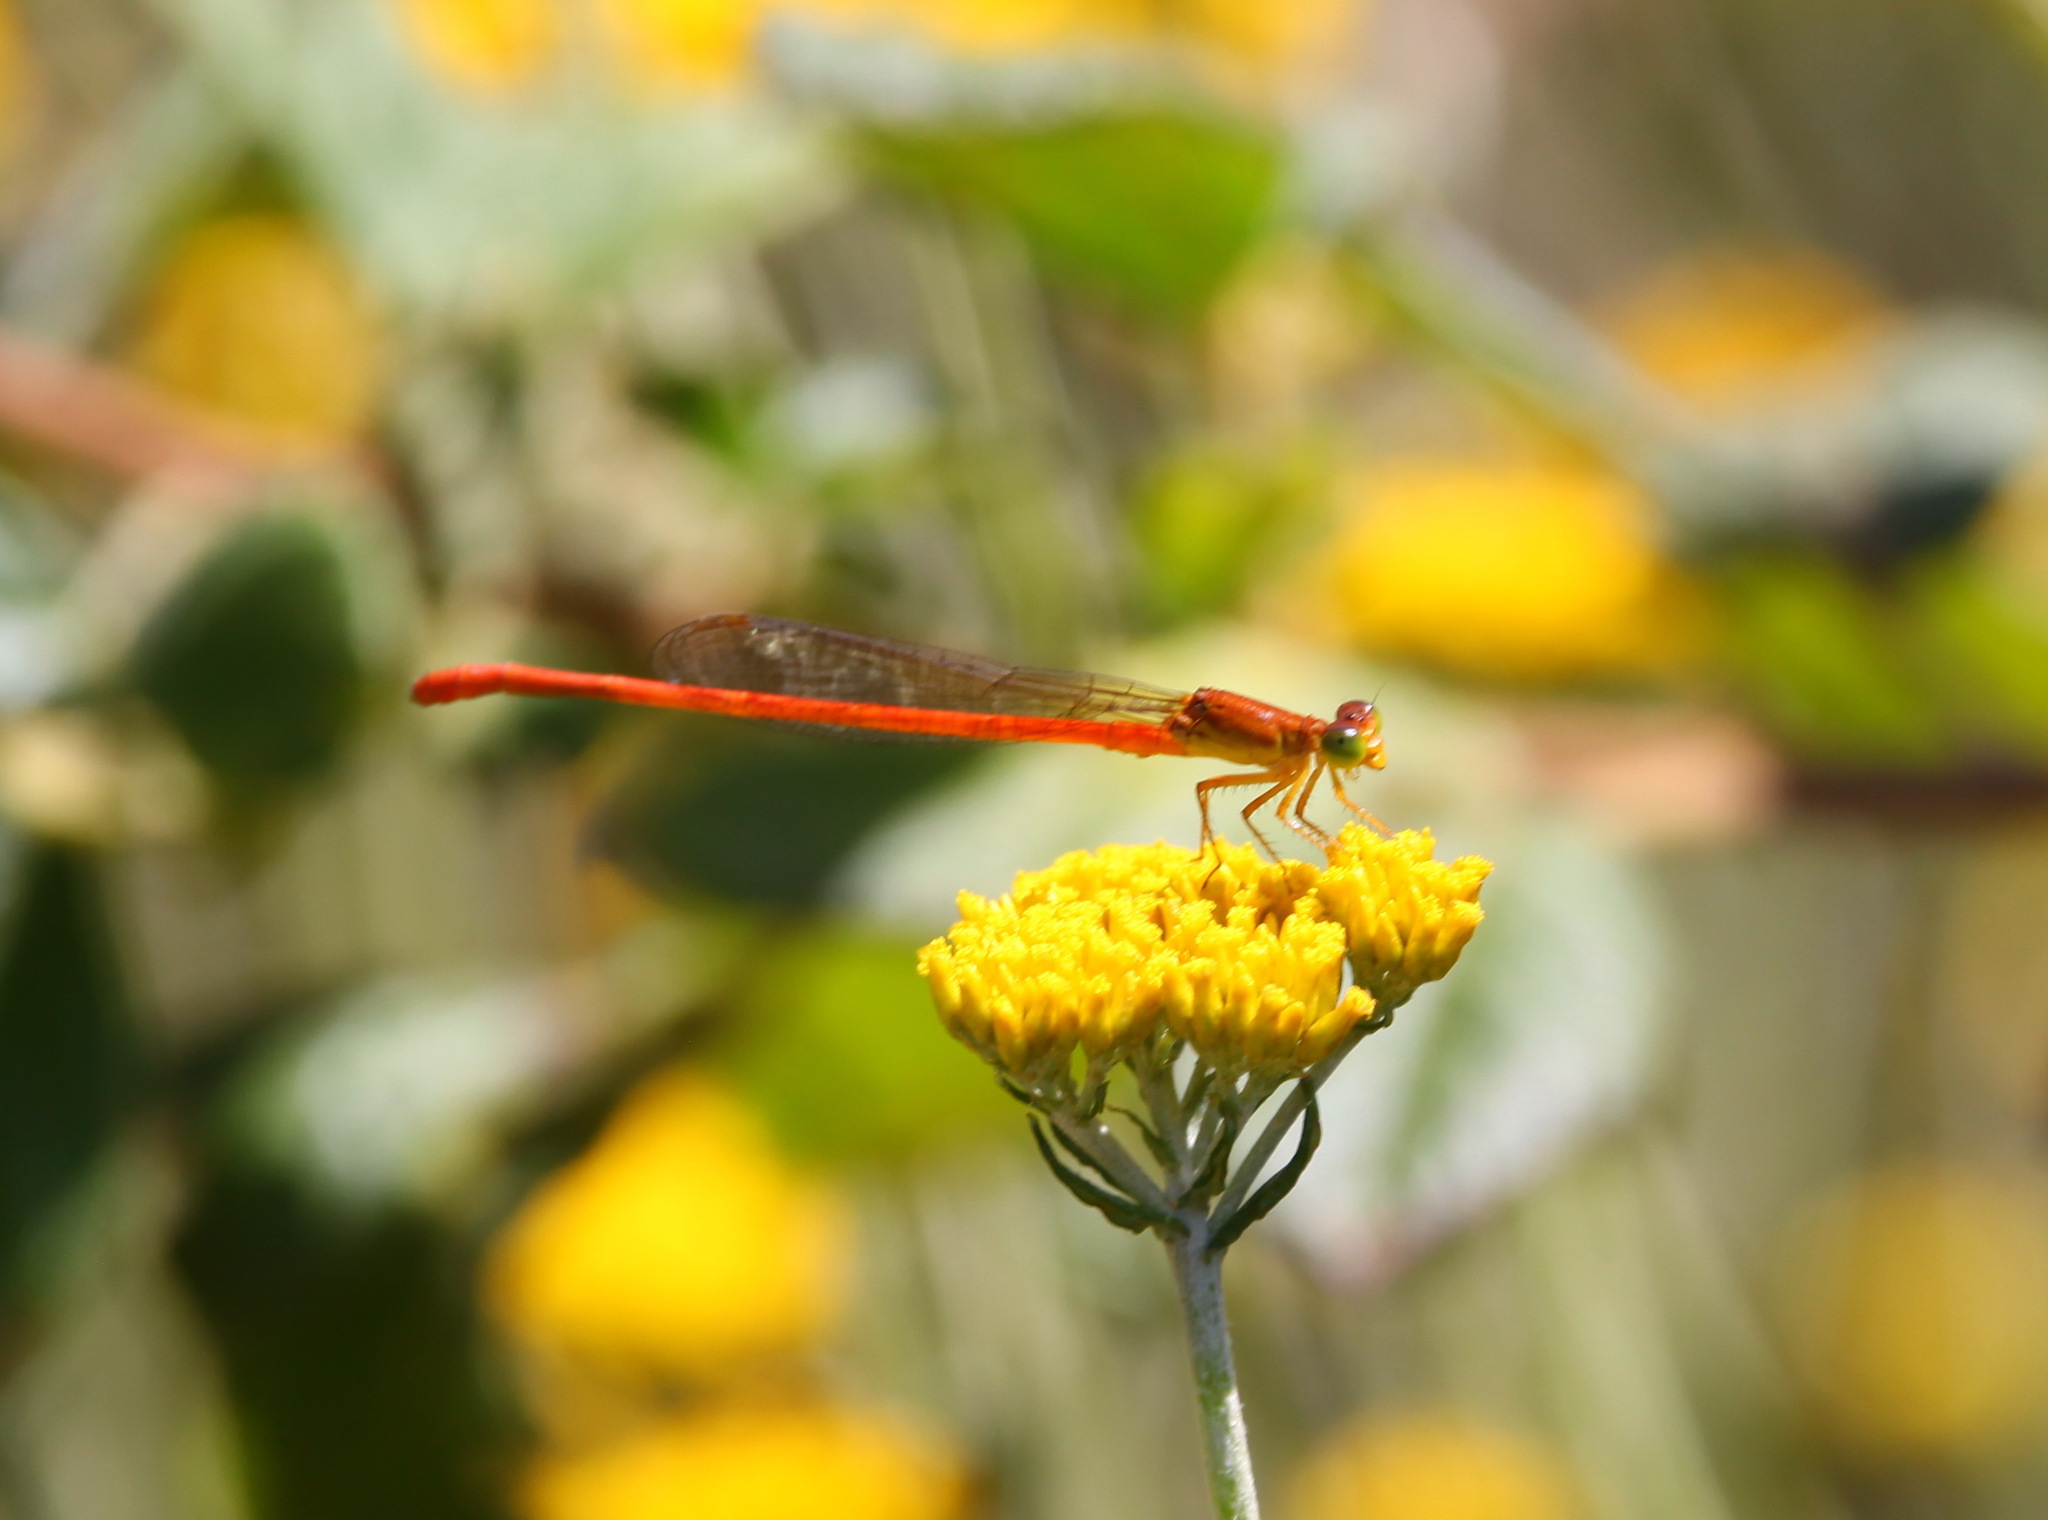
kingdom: Animalia
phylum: Arthropoda
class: Insecta
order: Odonata
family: Coenagrionidae
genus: Ceriagrion
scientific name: Ceriagrion glabrum
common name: Common pond damsel
